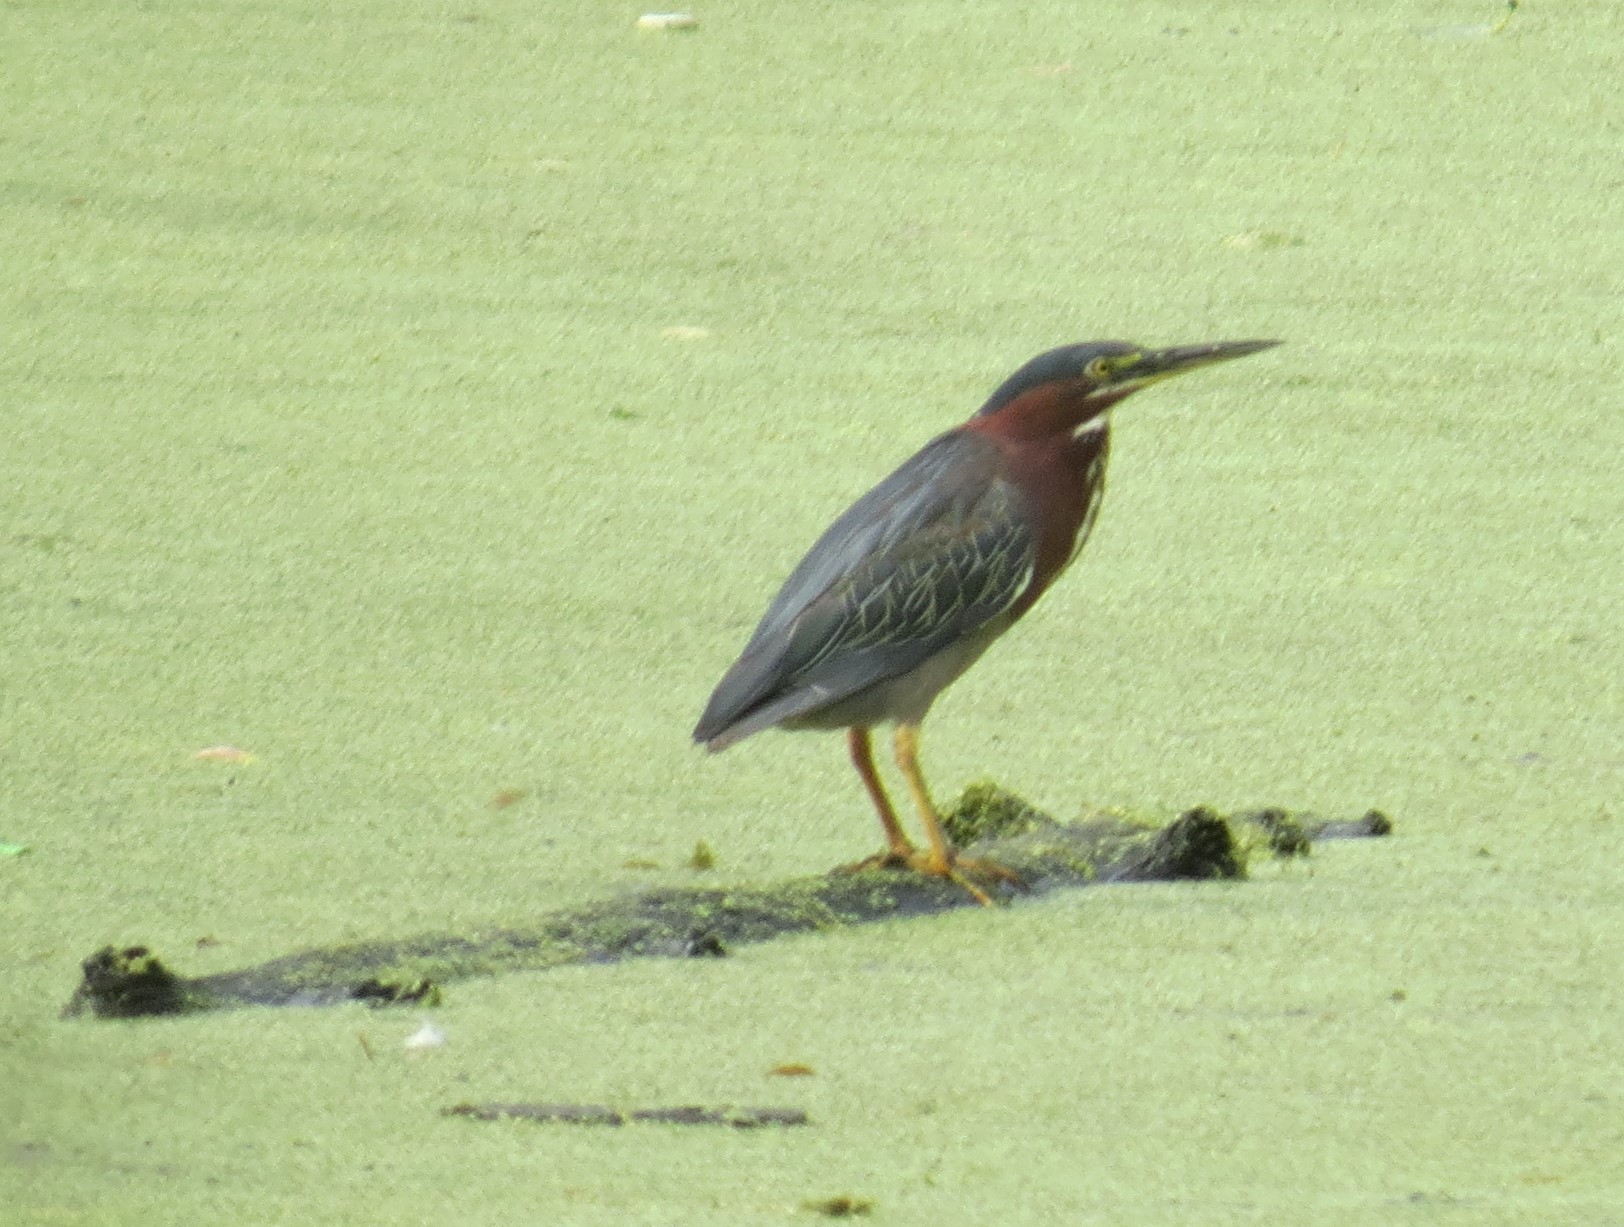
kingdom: Animalia
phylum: Chordata
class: Aves
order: Pelecaniformes
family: Ardeidae
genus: Butorides
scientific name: Butorides virescens
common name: Green heron
